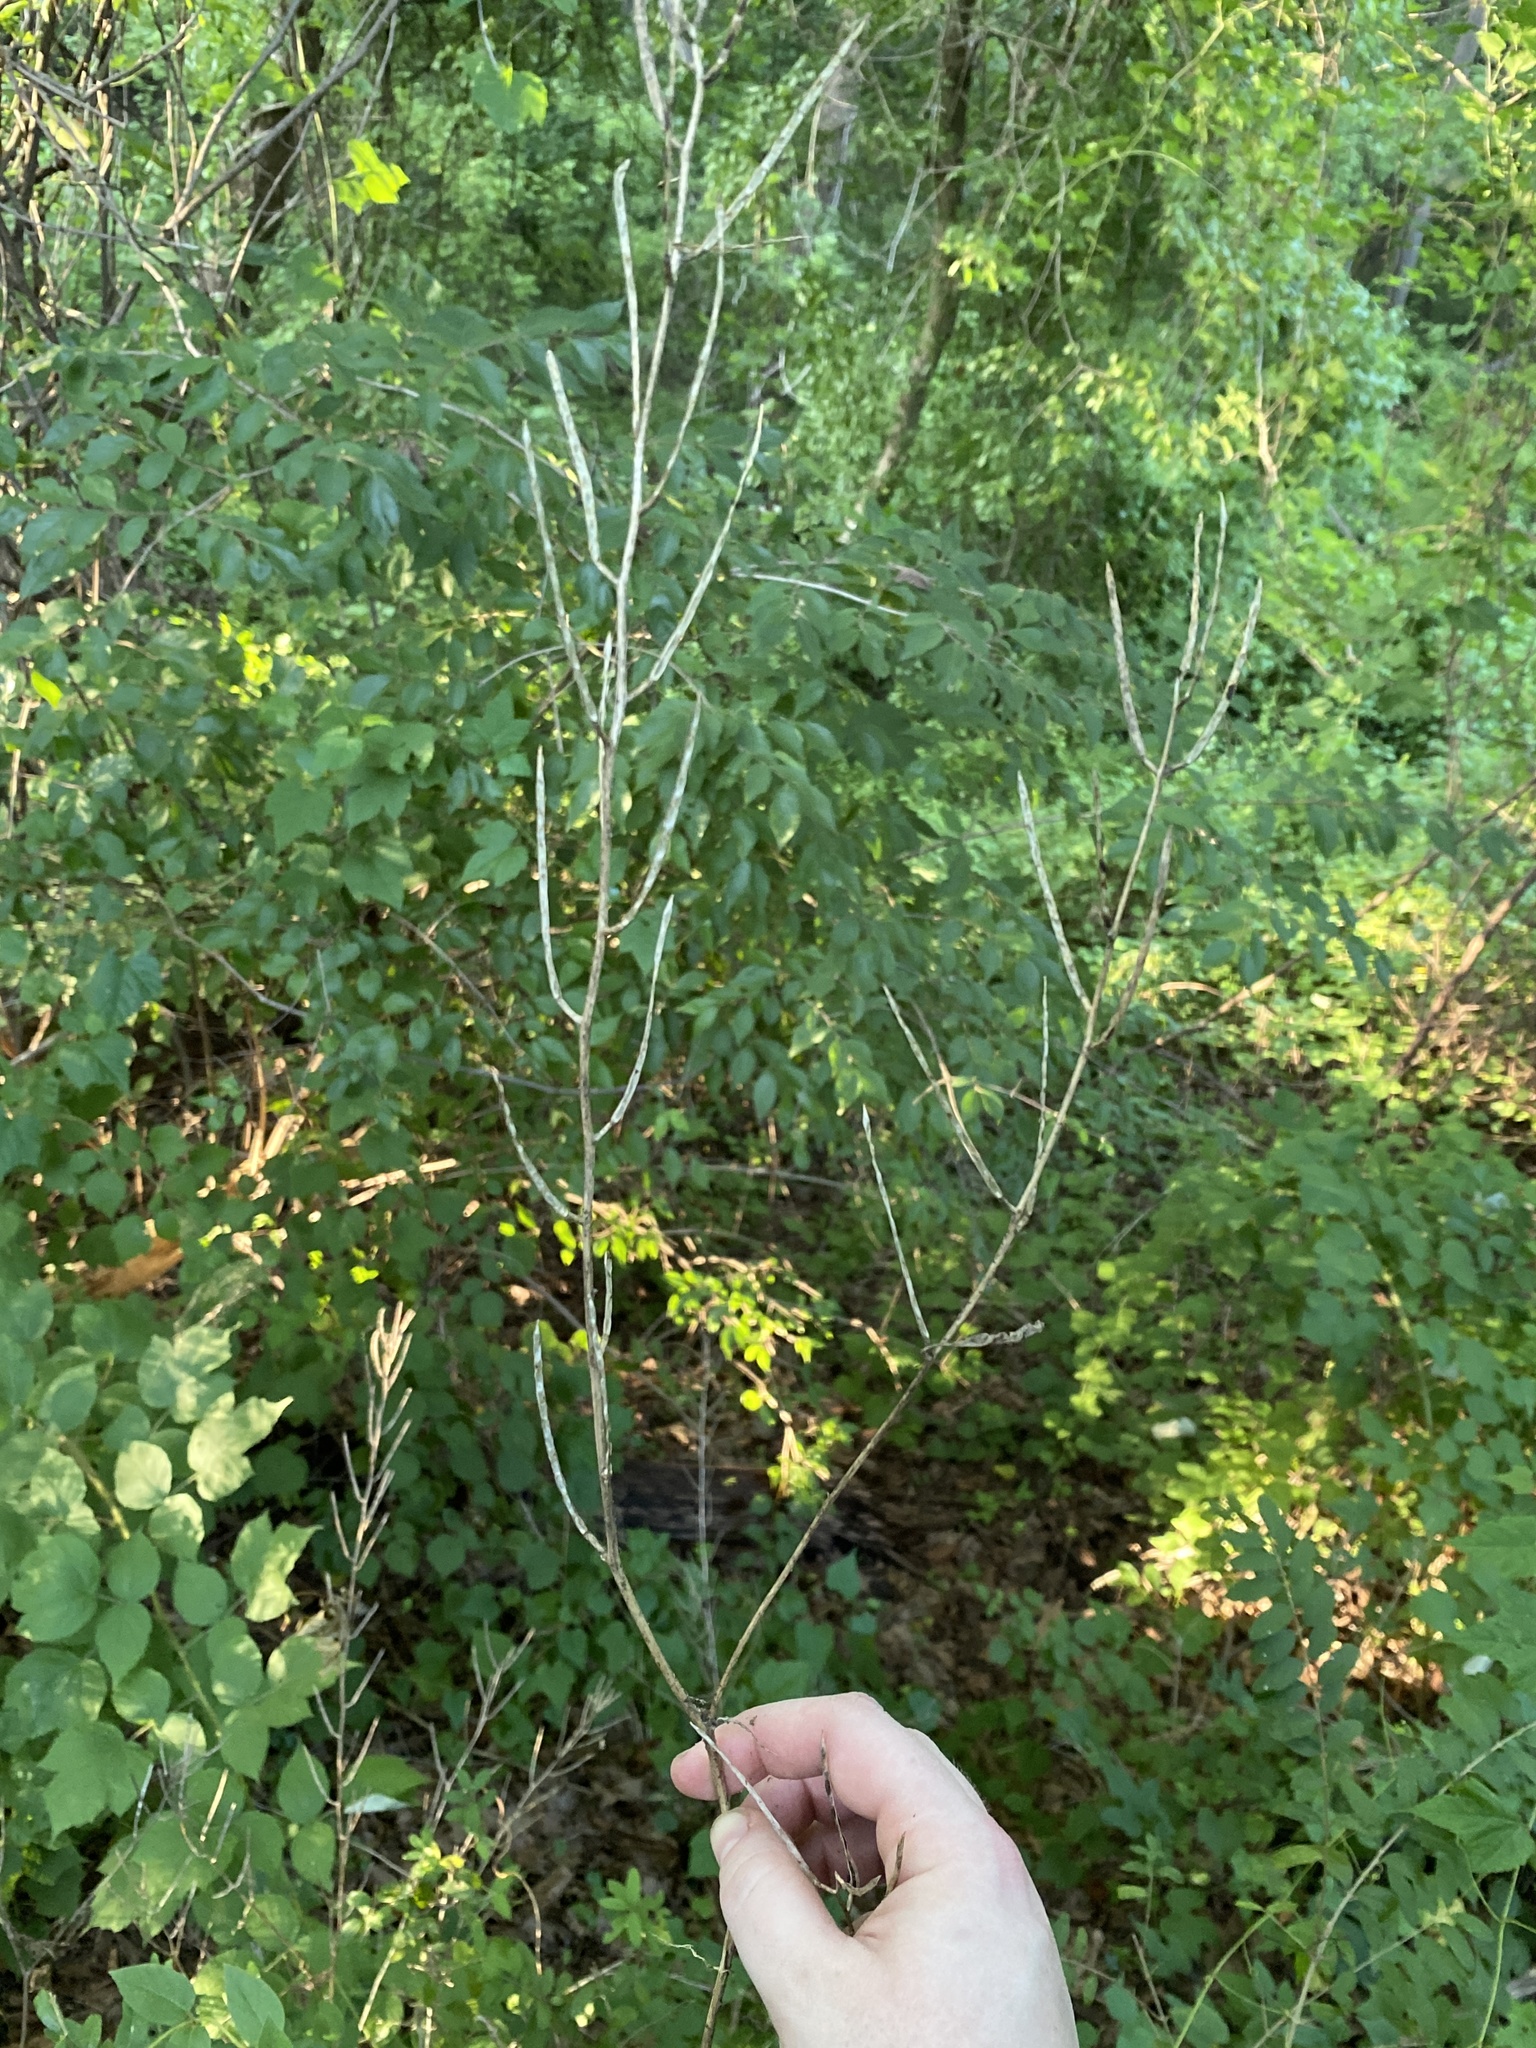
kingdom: Plantae
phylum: Tracheophyta
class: Magnoliopsida
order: Brassicales
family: Brassicaceae
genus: Alliaria
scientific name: Alliaria petiolata
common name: Garlic mustard
